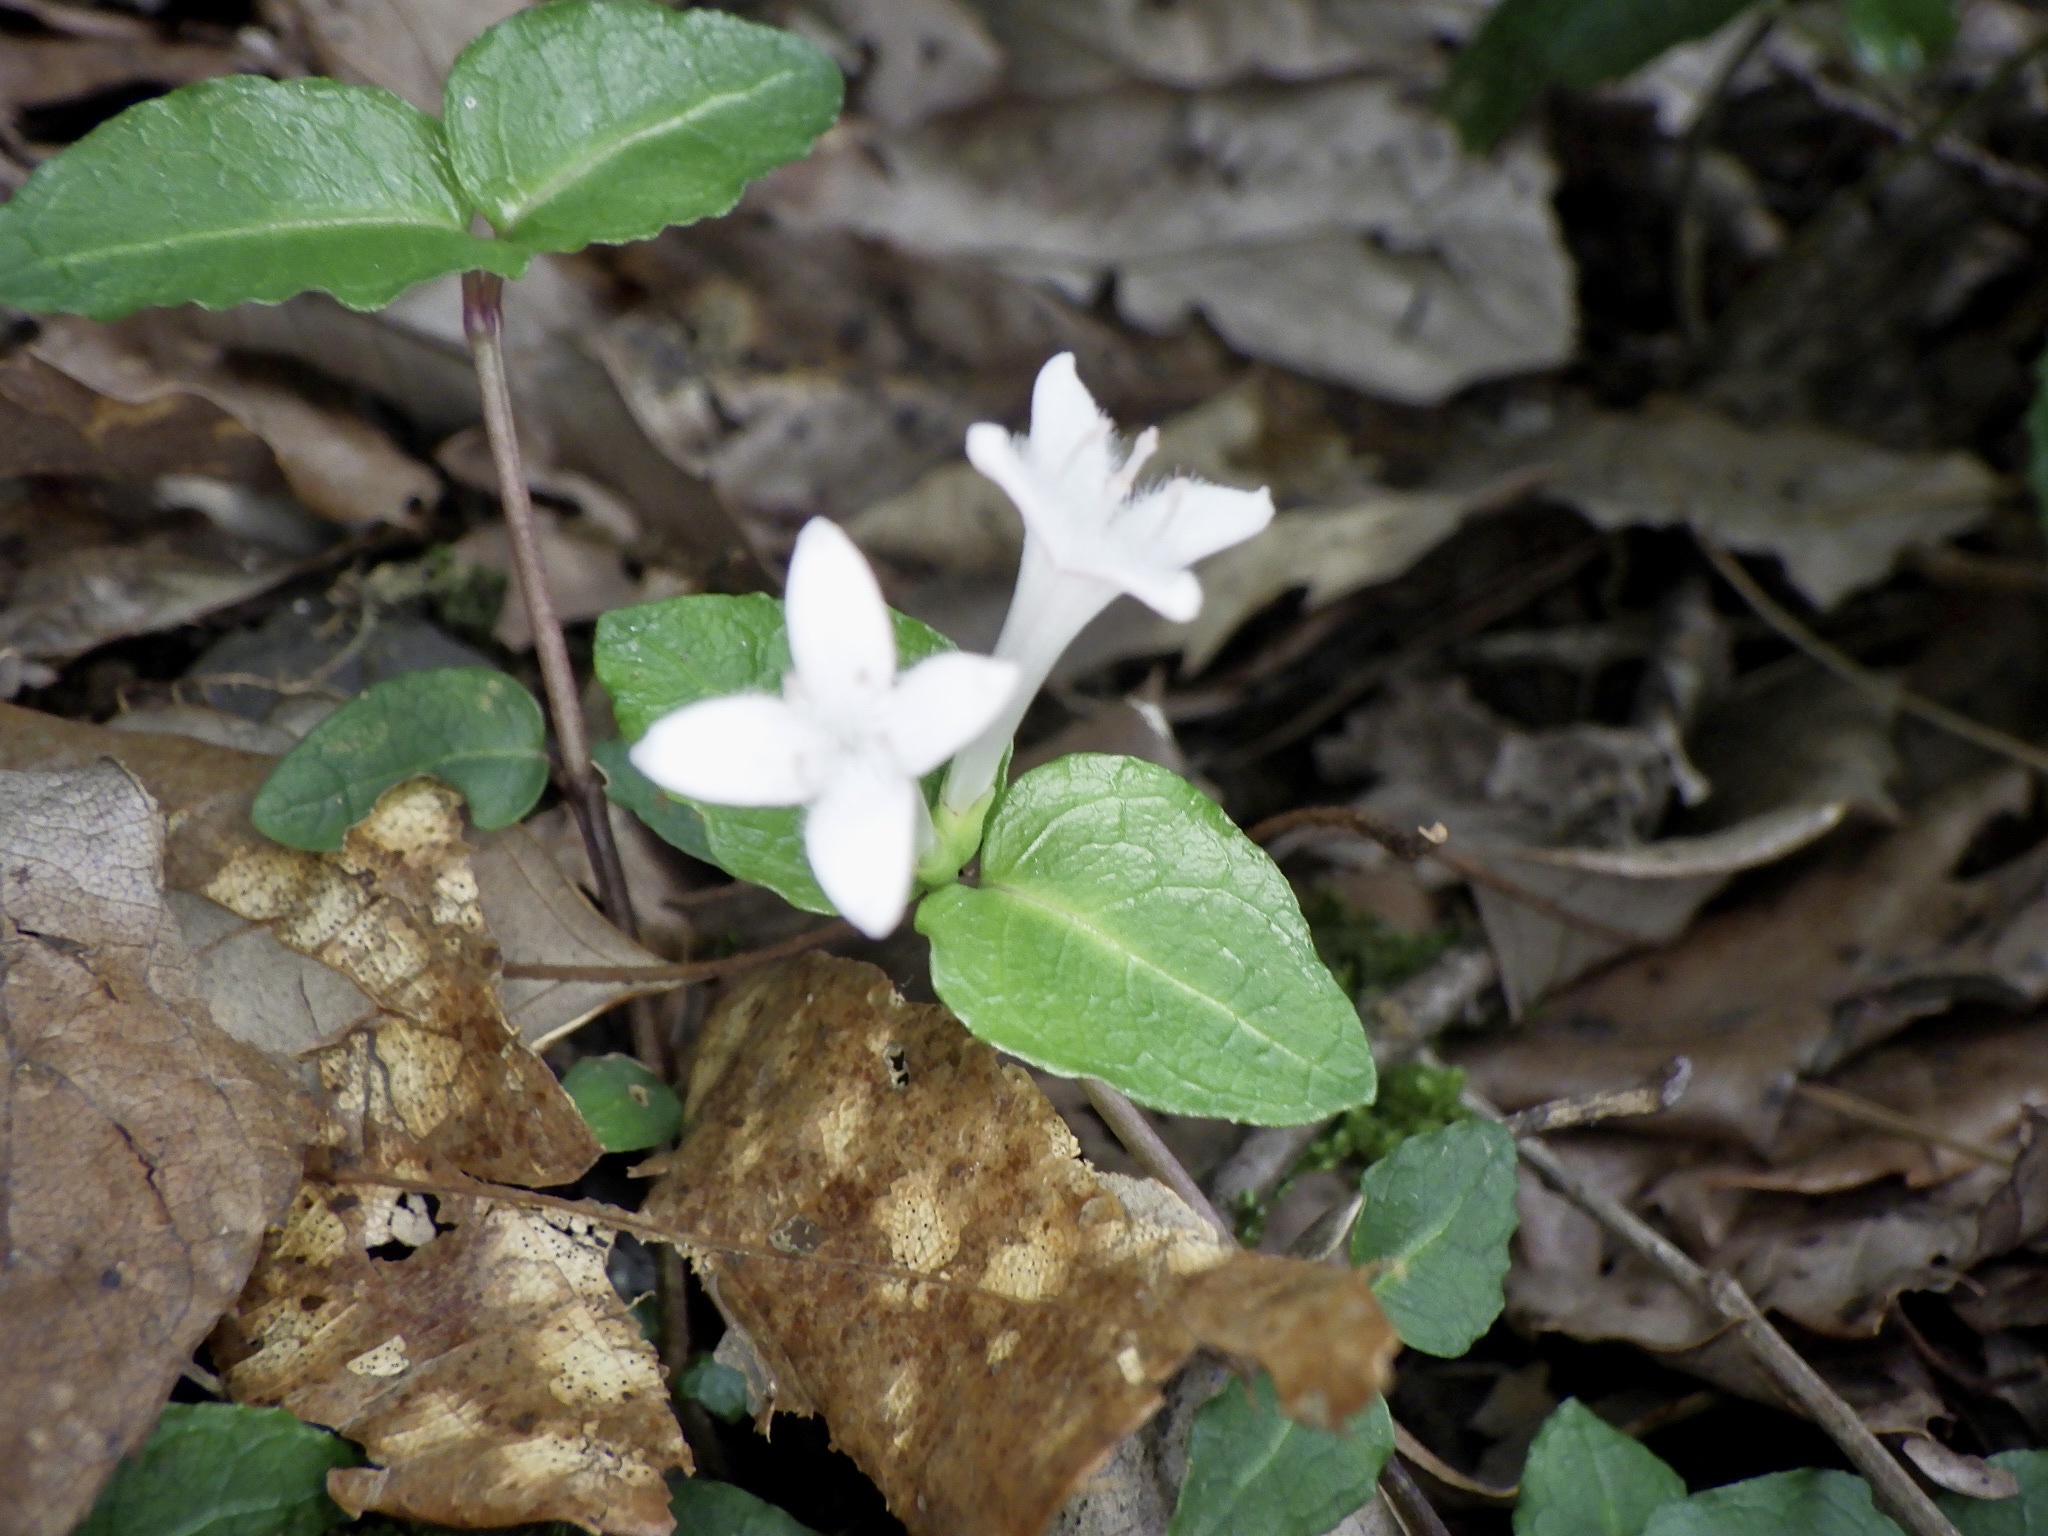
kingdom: Plantae
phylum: Tracheophyta
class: Magnoliopsida
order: Gentianales
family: Rubiaceae
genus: Mitchella
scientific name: Mitchella undulata
